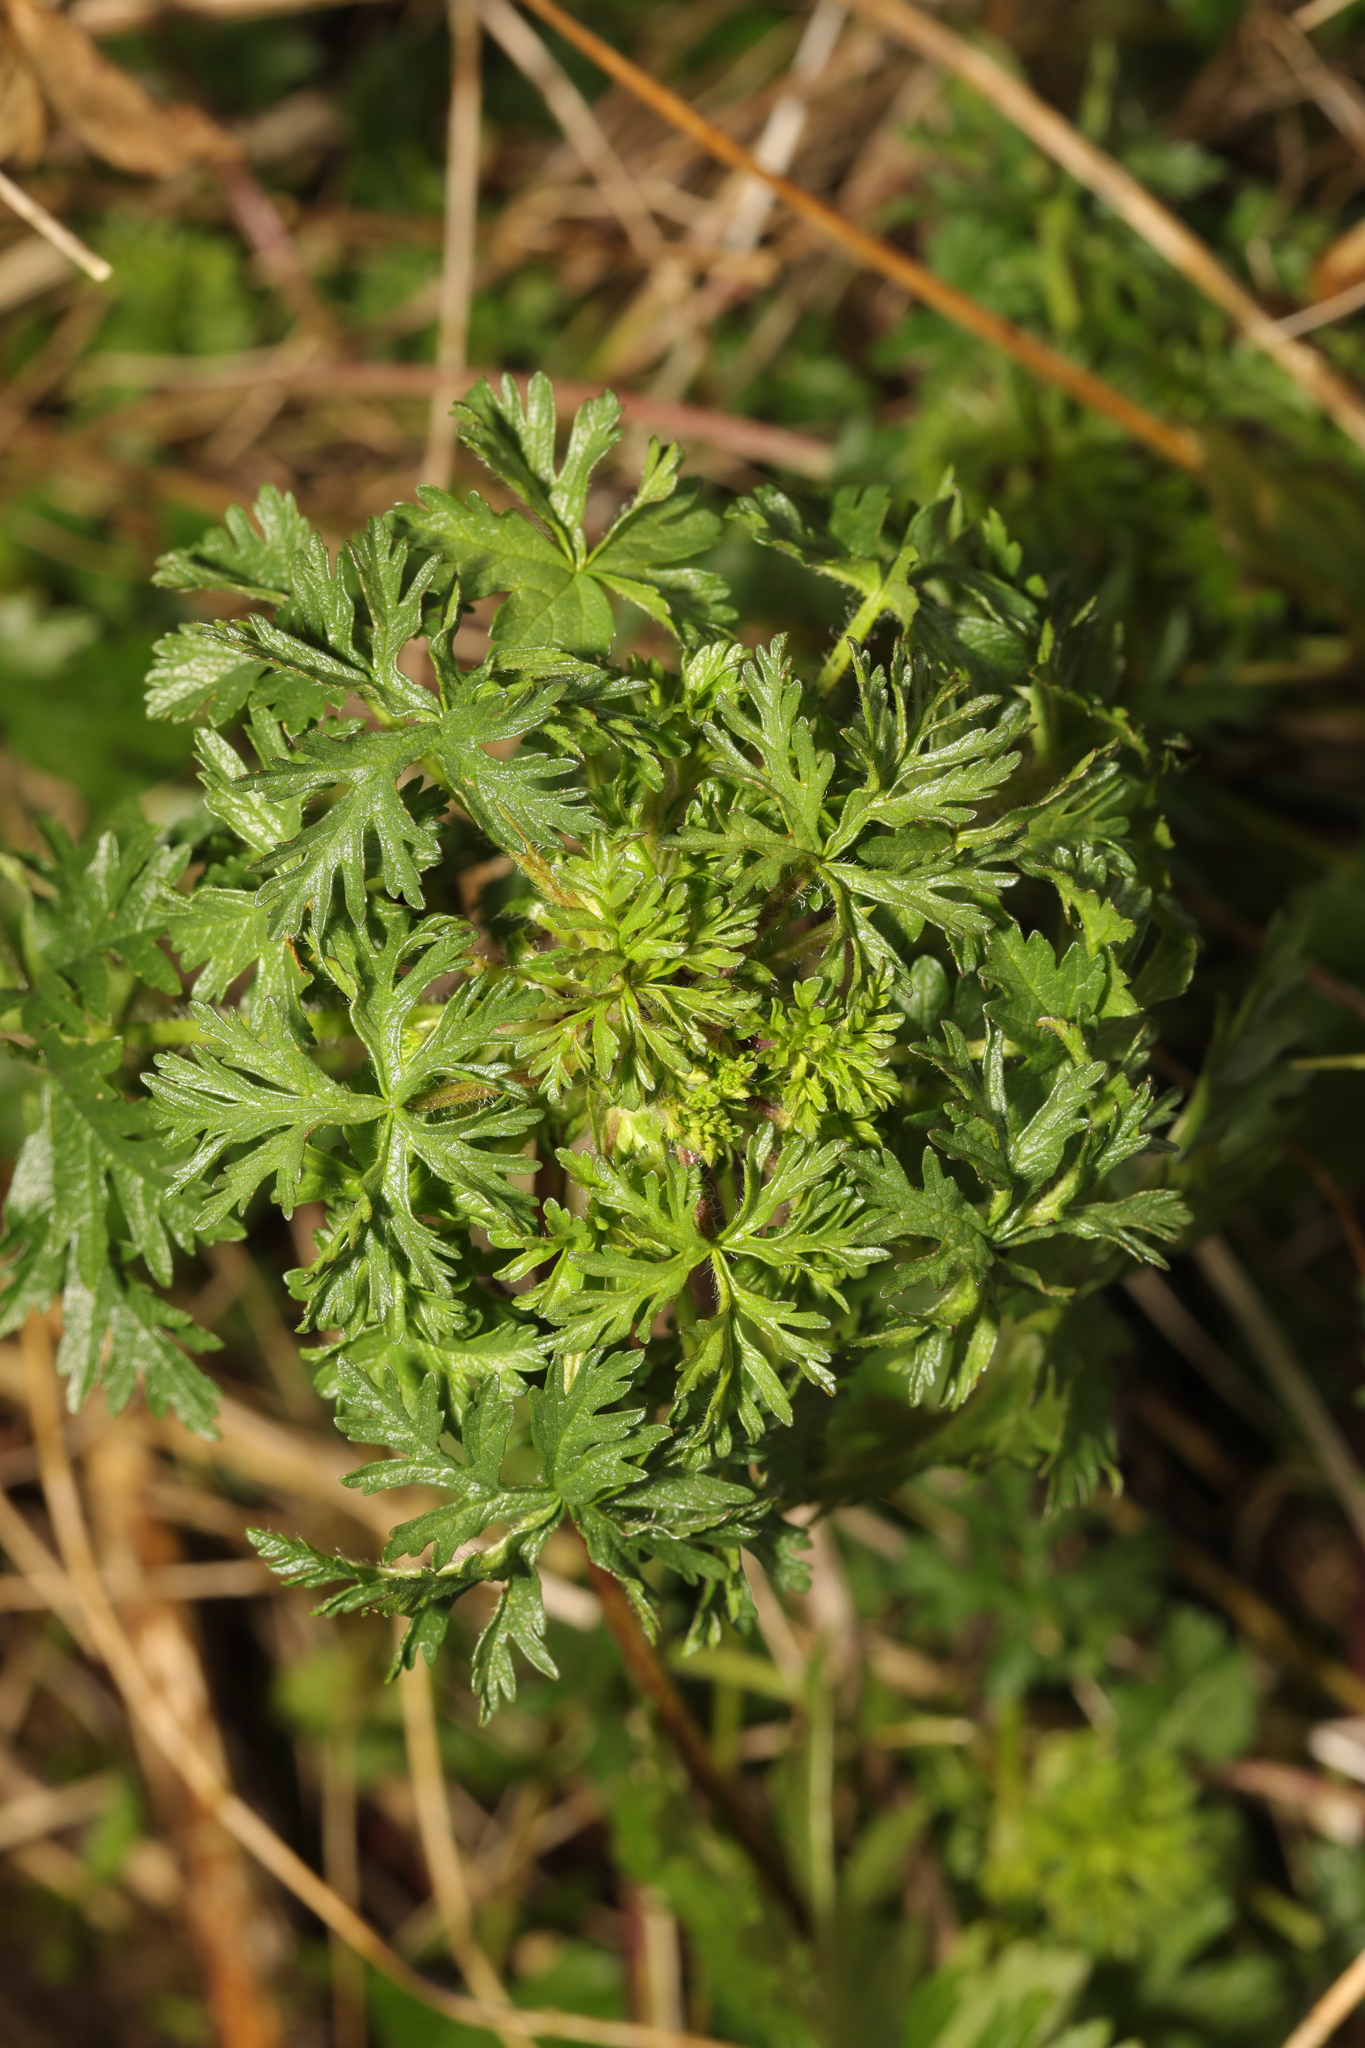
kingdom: Plantae
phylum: Tracheophyta
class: Magnoliopsida
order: Geraniales
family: Geraniaceae
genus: Geranium
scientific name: Geranium dissectum
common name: Cut-leaved crane's-bill
